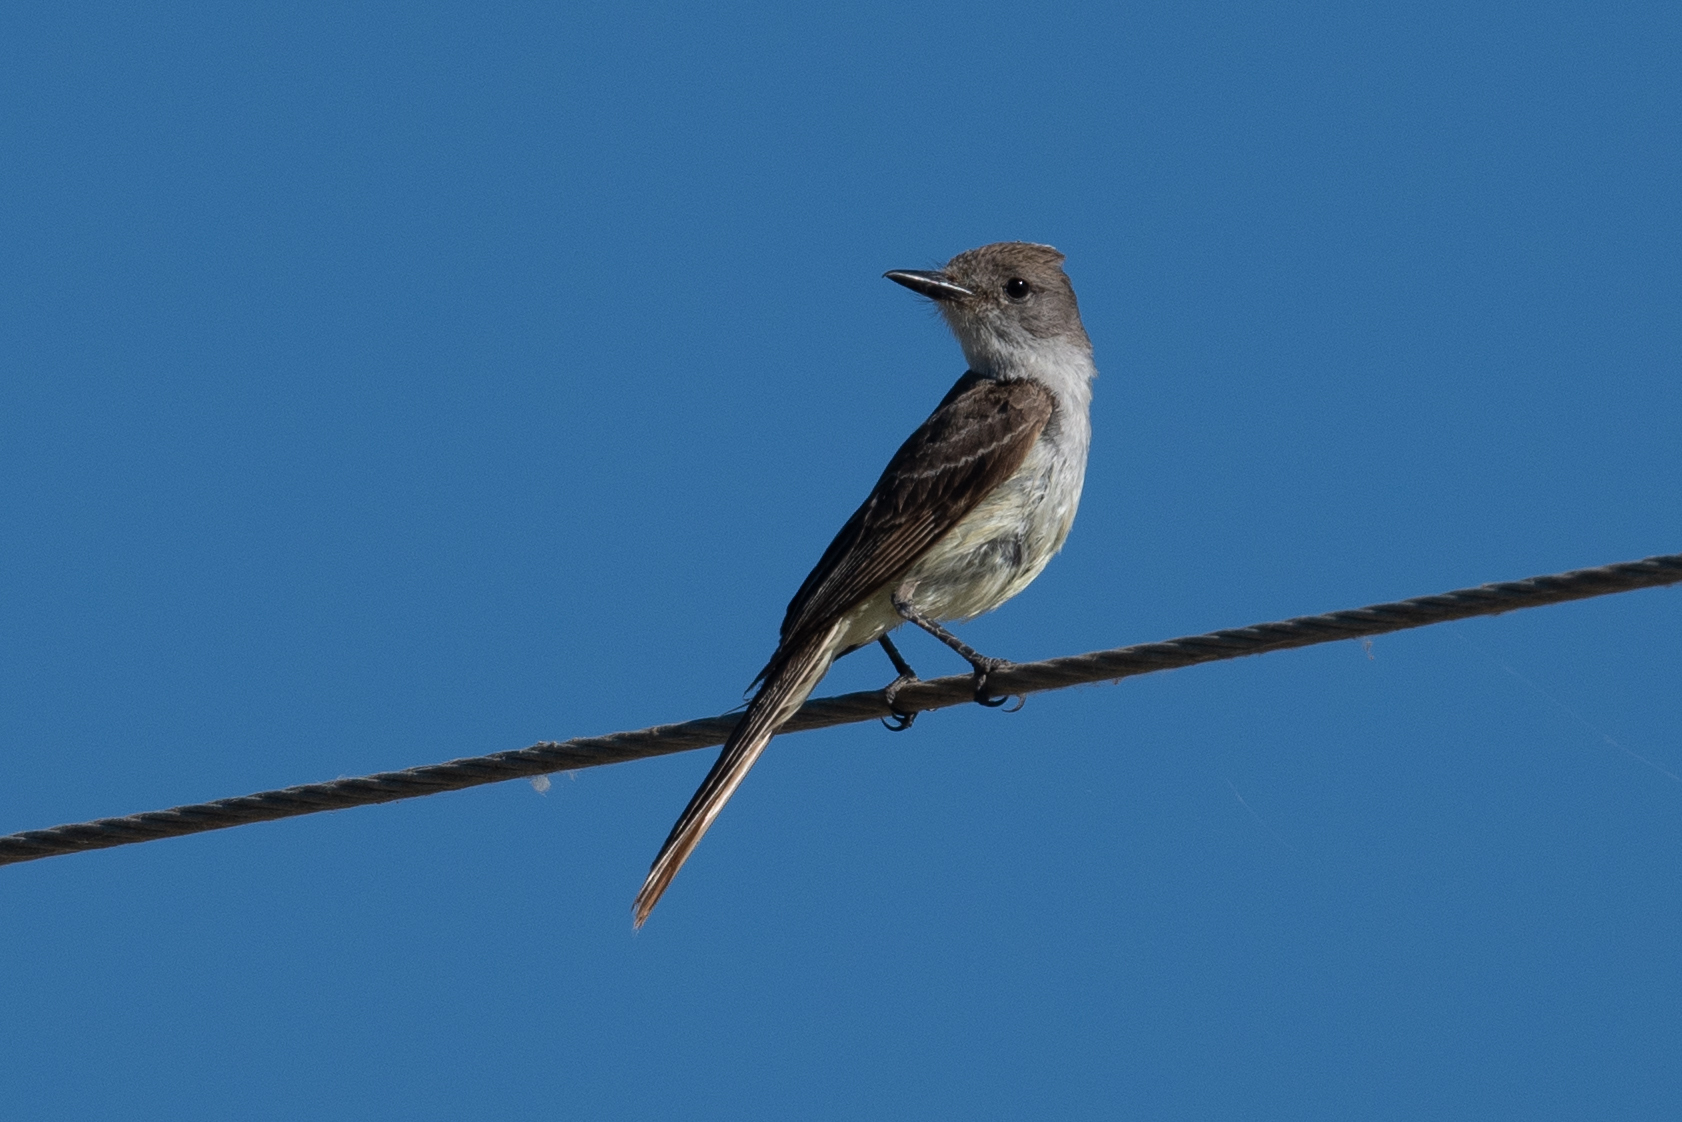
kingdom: Animalia
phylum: Chordata
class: Aves
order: Passeriformes
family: Tyrannidae
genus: Myiarchus
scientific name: Myiarchus cinerascens
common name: Ash-throated flycatcher
